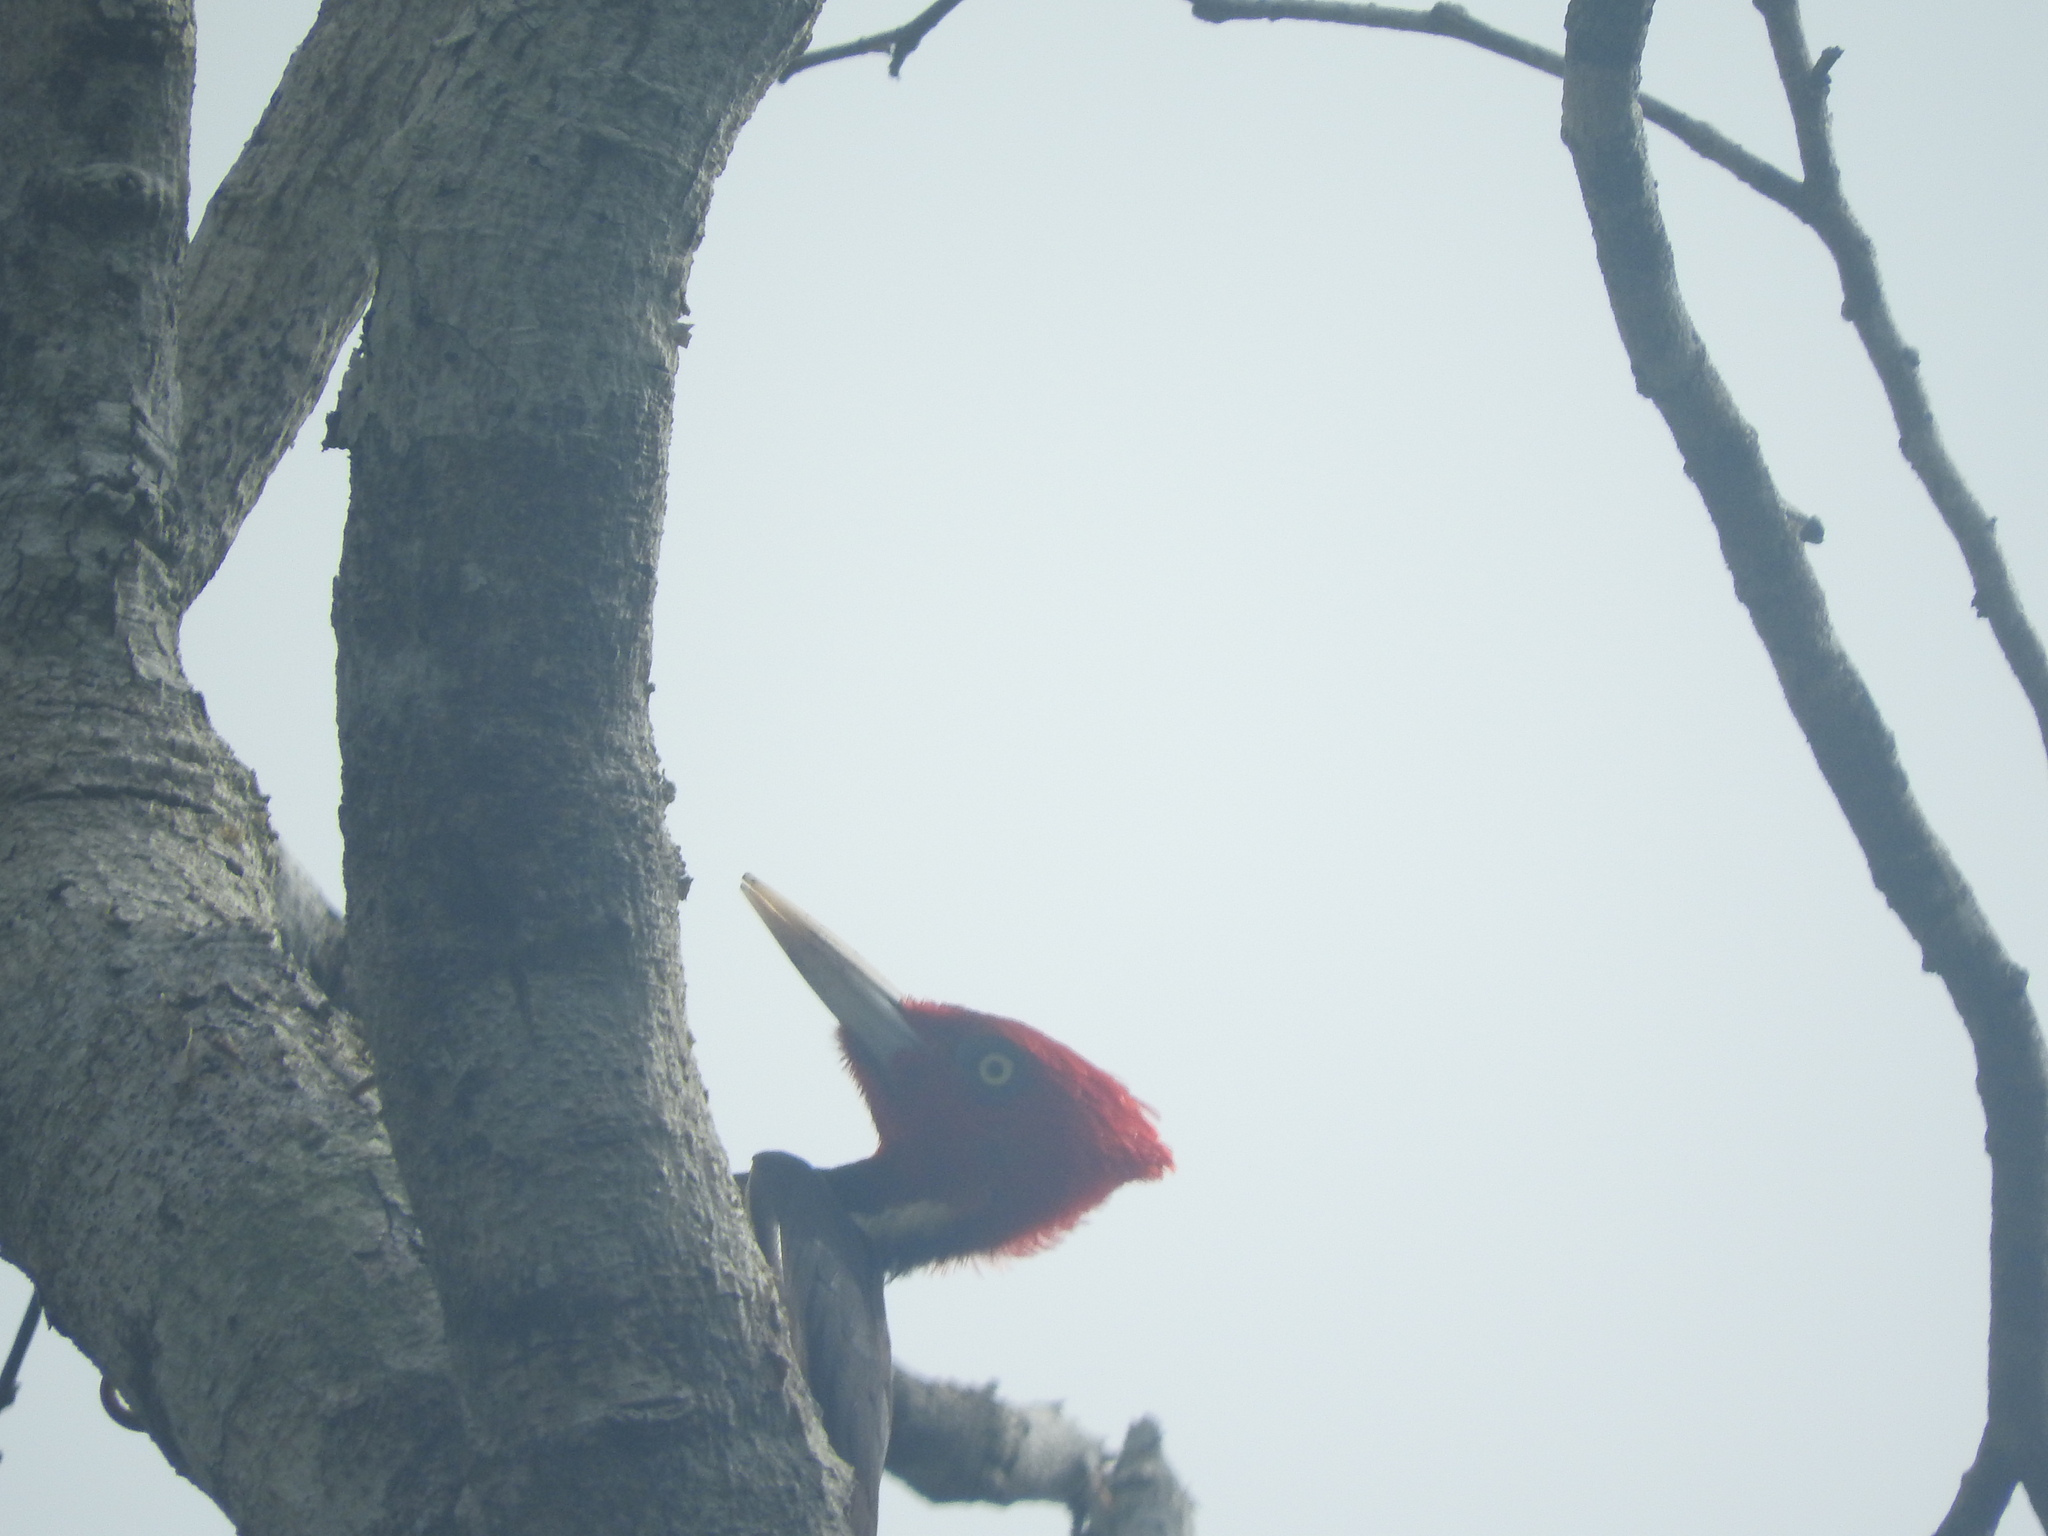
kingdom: Animalia
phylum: Chordata
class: Aves
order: Piciformes
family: Picidae
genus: Campephilus
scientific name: Campephilus guatemalensis
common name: Pale-billed woodpecker
